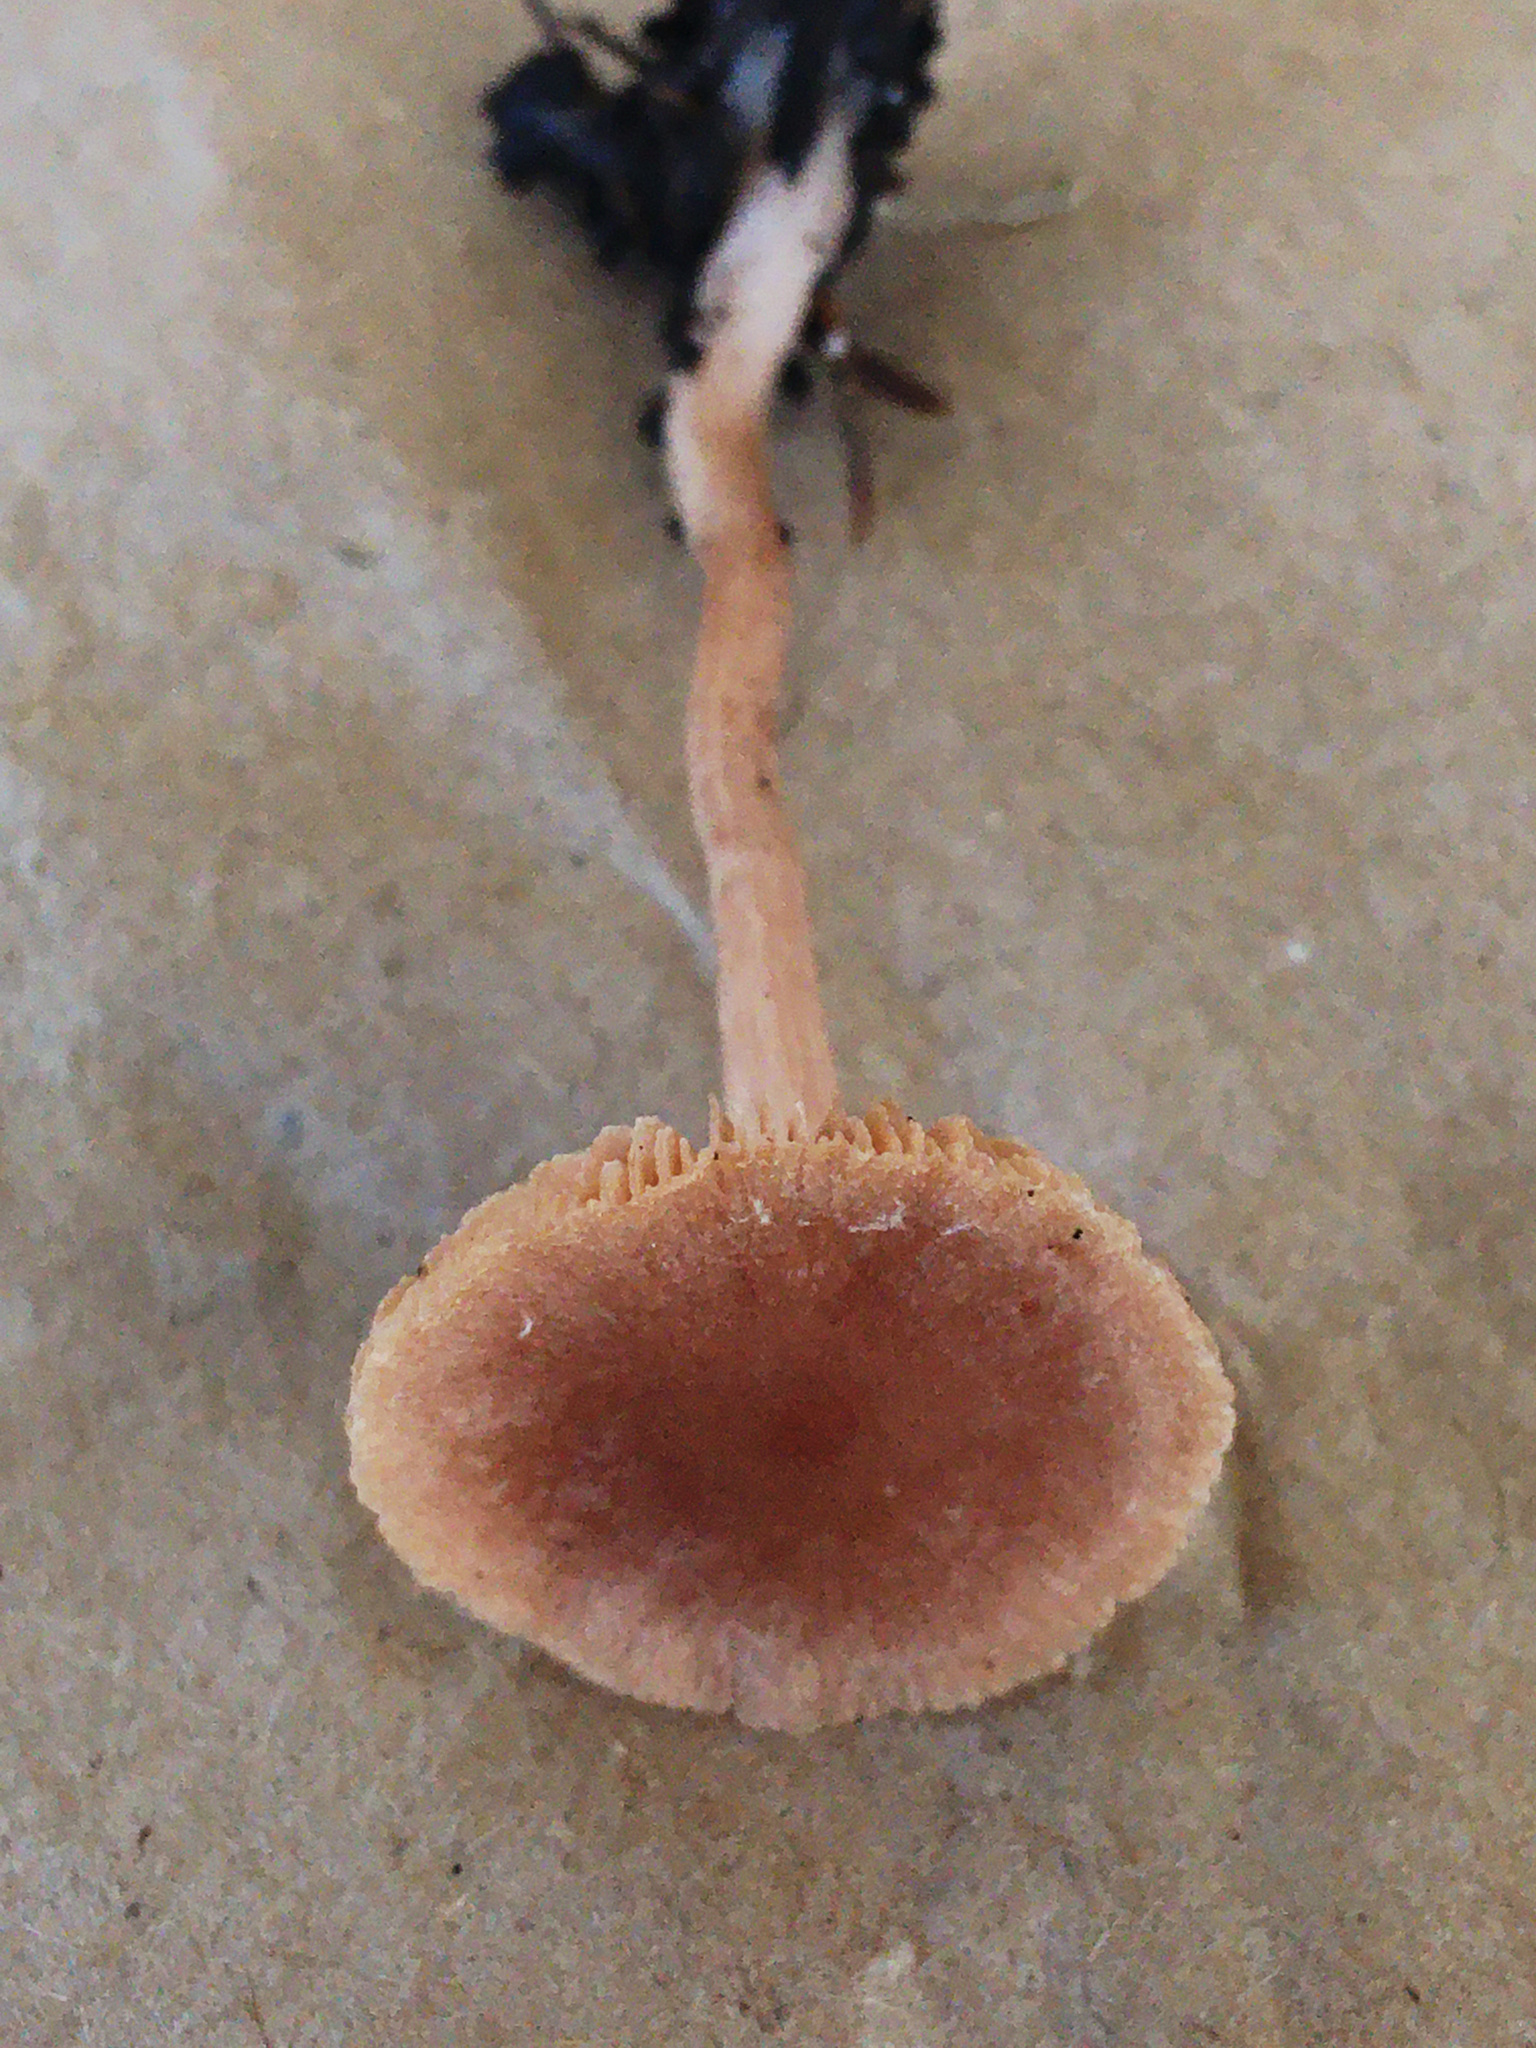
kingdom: Fungi
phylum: Basidiomycota
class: Agaricomycetes
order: Agaricales
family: Tubariaceae
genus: Tubaria
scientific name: Tubaria furfuracea
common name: Scurfy twiglet
